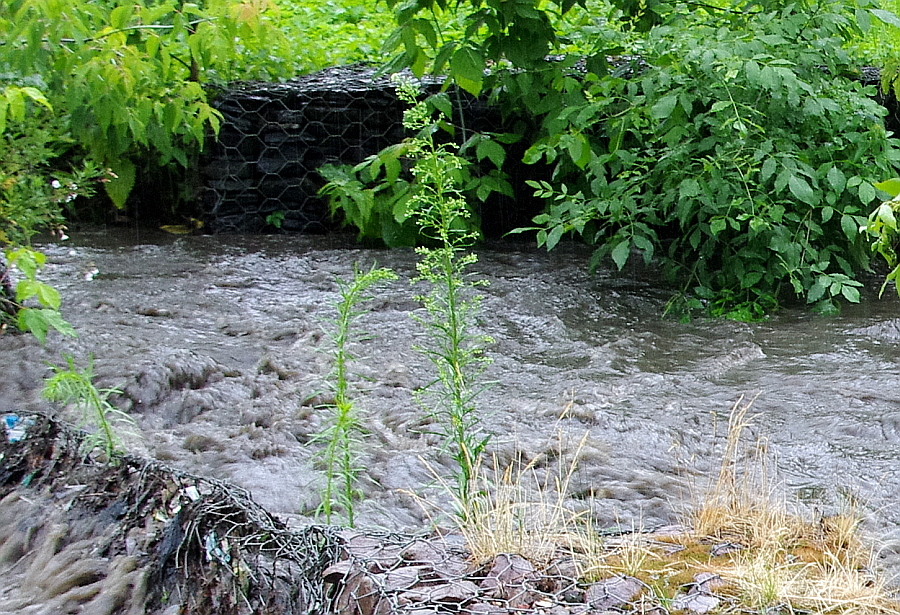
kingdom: Plantae
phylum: Tracheophyta
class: Magnoliopsida
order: Asterales
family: Asteraceae
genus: Erigeron
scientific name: Erigeron canadensis
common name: Canadian fleabane
